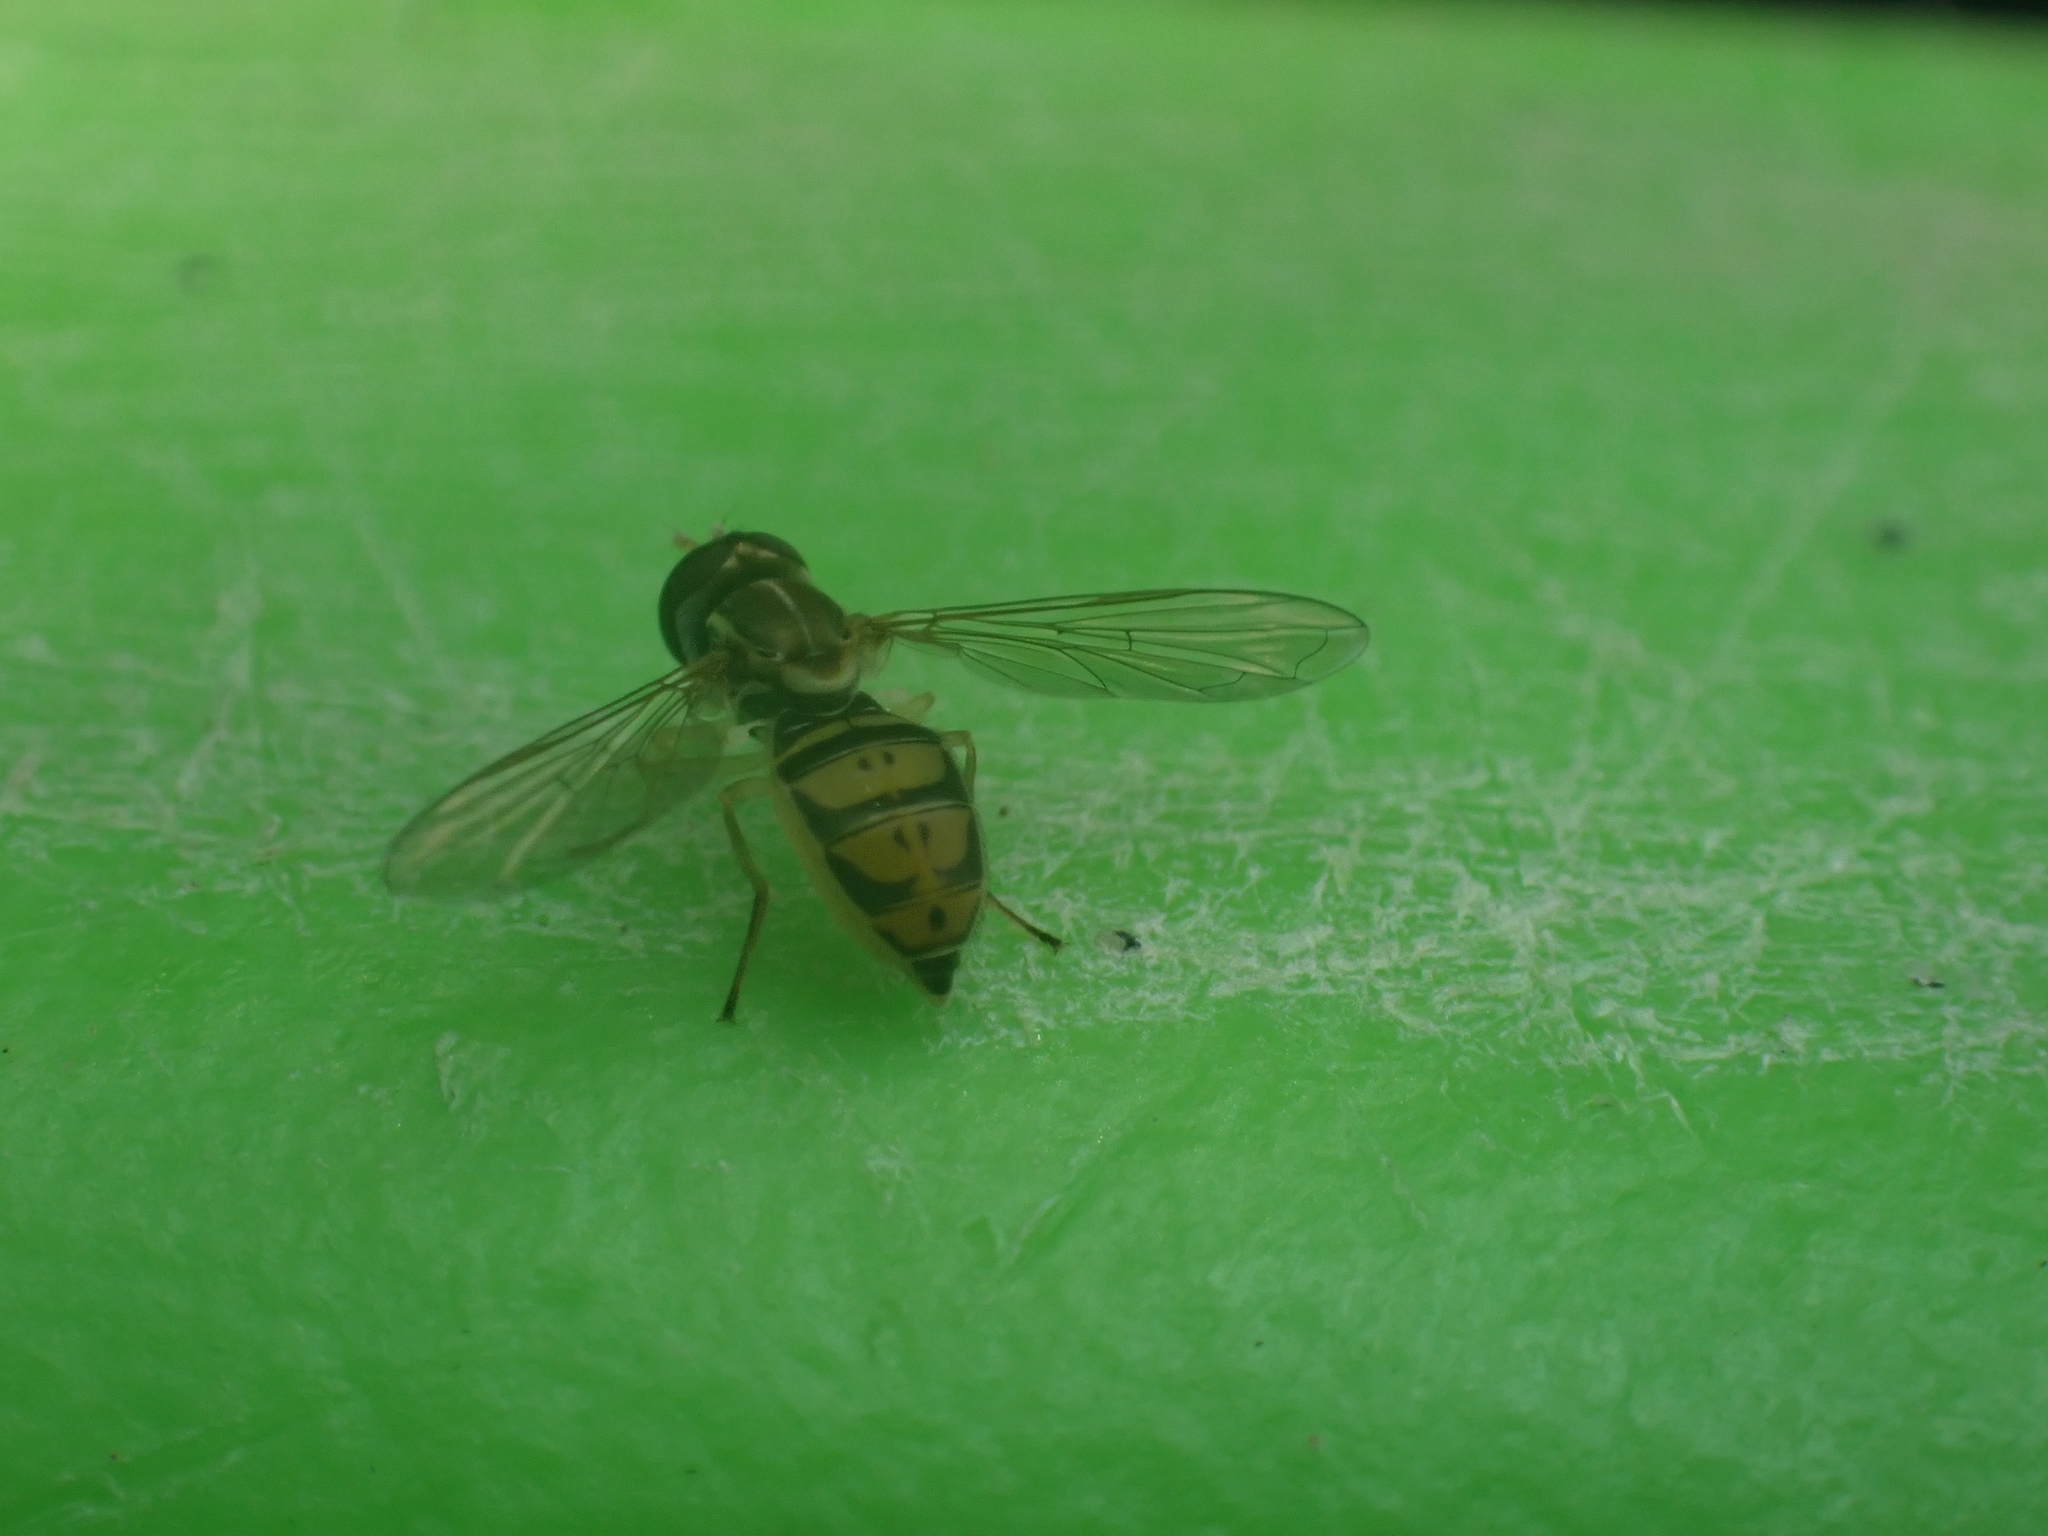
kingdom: Animalia
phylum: Arthropoda
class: Insecta
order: Diptera
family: Syrphidae
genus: Toxomerus
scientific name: Toxomerus marginatus
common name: Syrphid fly
